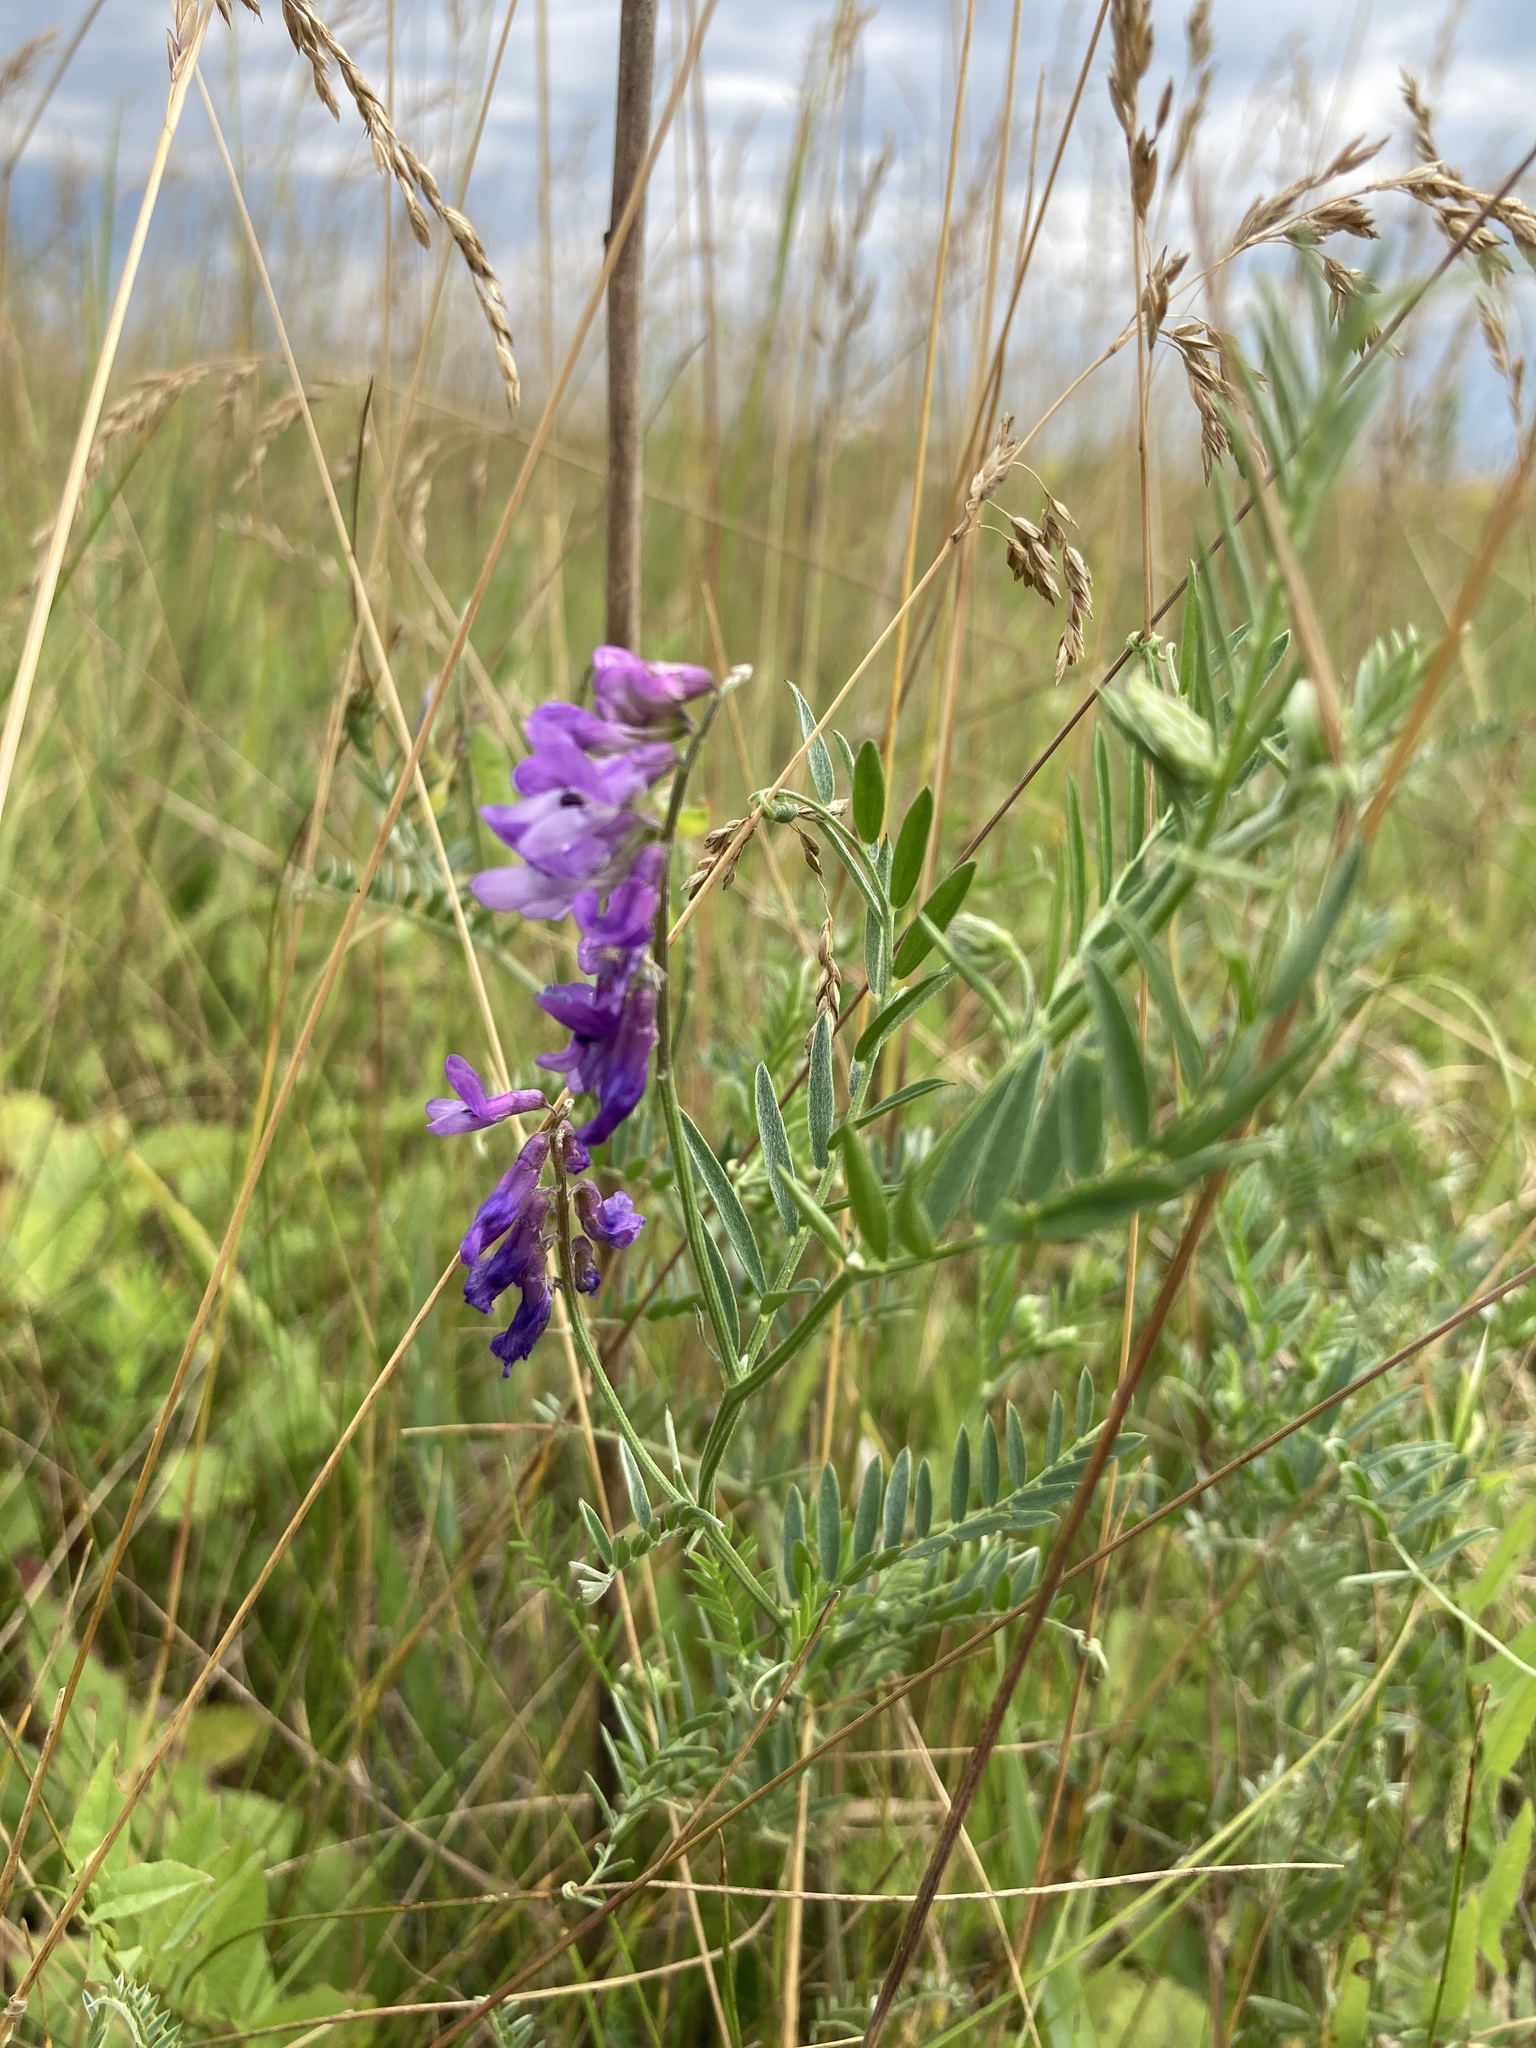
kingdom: Plantae
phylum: Tracheophyta
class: Magnoliopsida
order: Fabales
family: Fabaceae
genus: Vicia
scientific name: Vicia cracca
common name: Bird vetch
